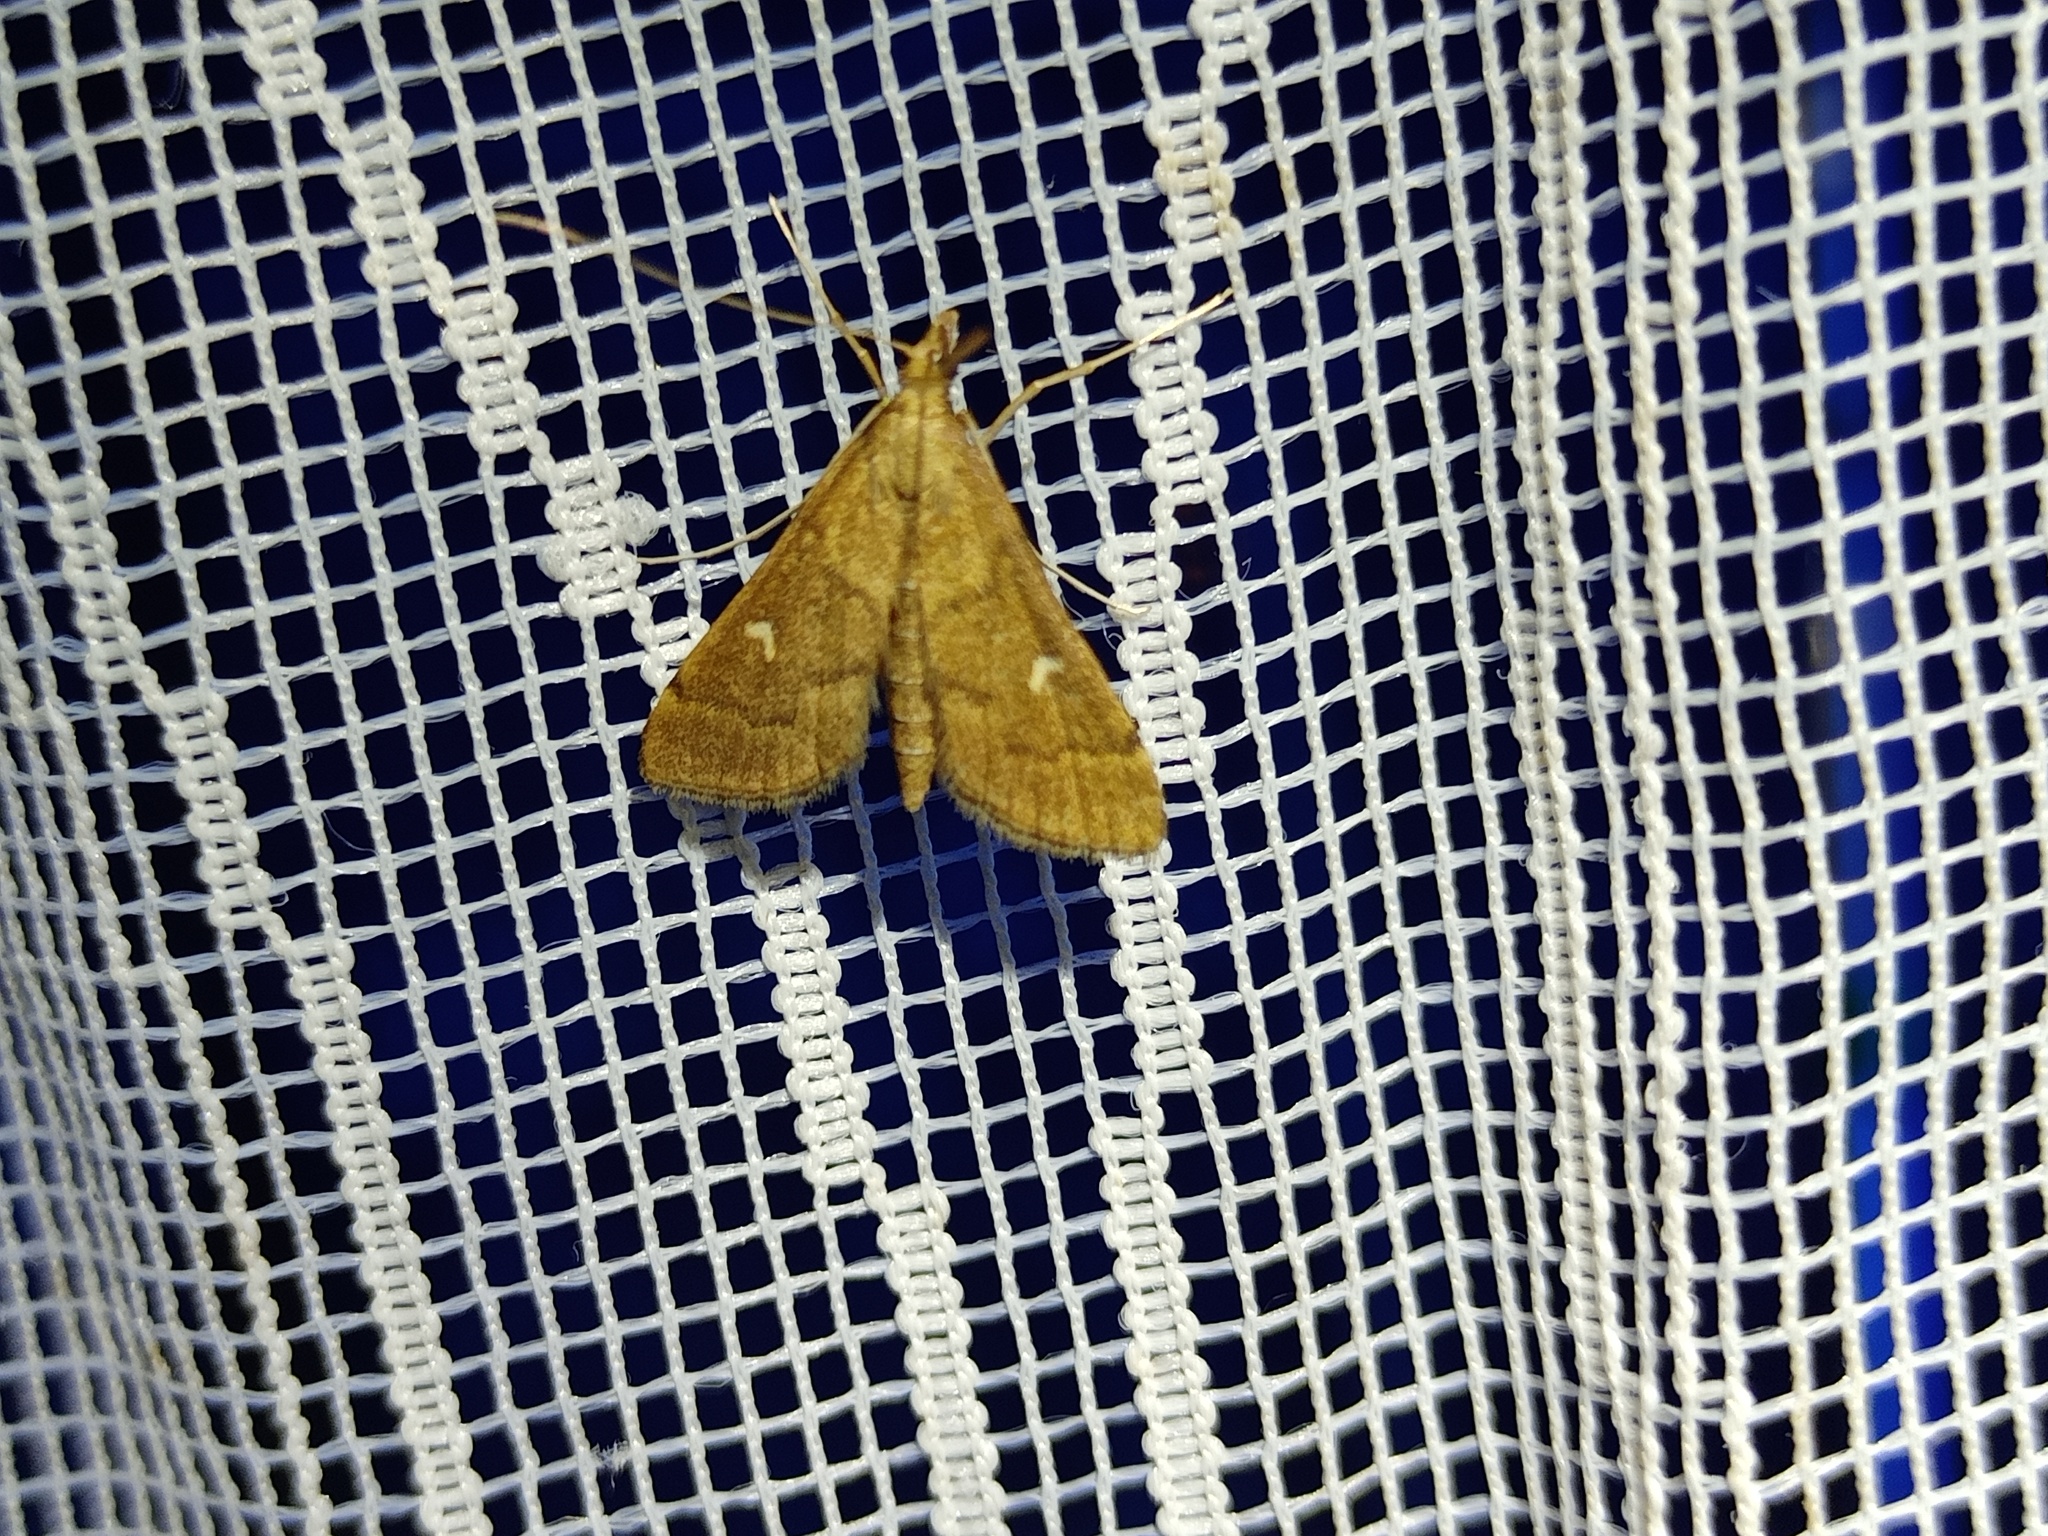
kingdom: Animalia
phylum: Arthropoda
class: Insecta
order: Lepidoptera
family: Crambidae
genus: Stenia
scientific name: Stenia Dolicharthria punctalis
